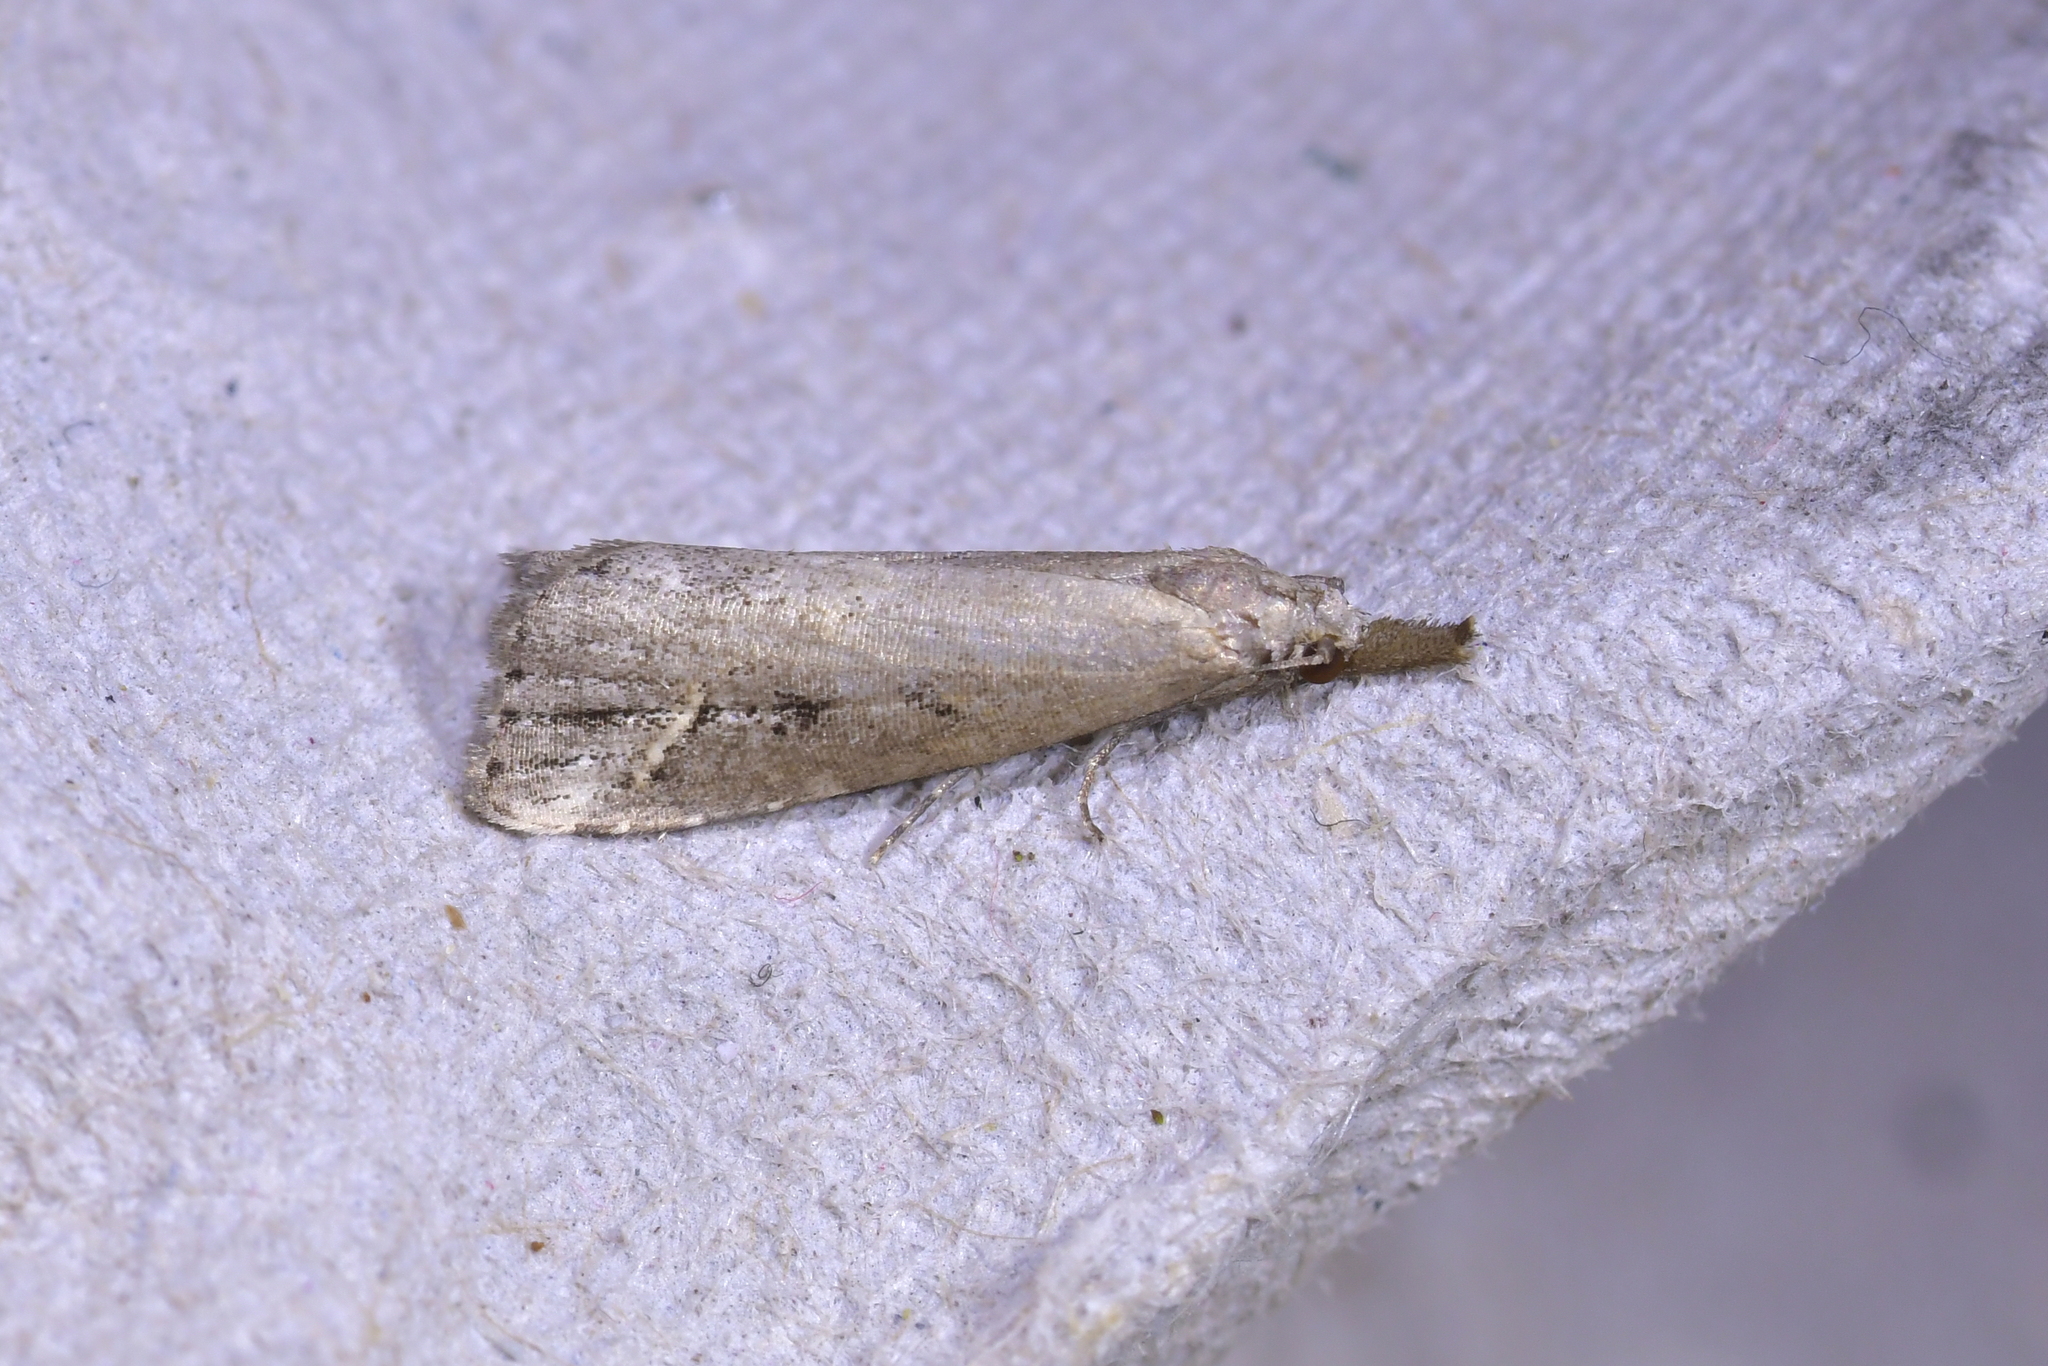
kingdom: Animalia
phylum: Arthropoda
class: Insecta
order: Lepidoptera
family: Erebidae
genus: Schrankia
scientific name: Schrankia costaestrigalis
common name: Pinion-streaked snout
